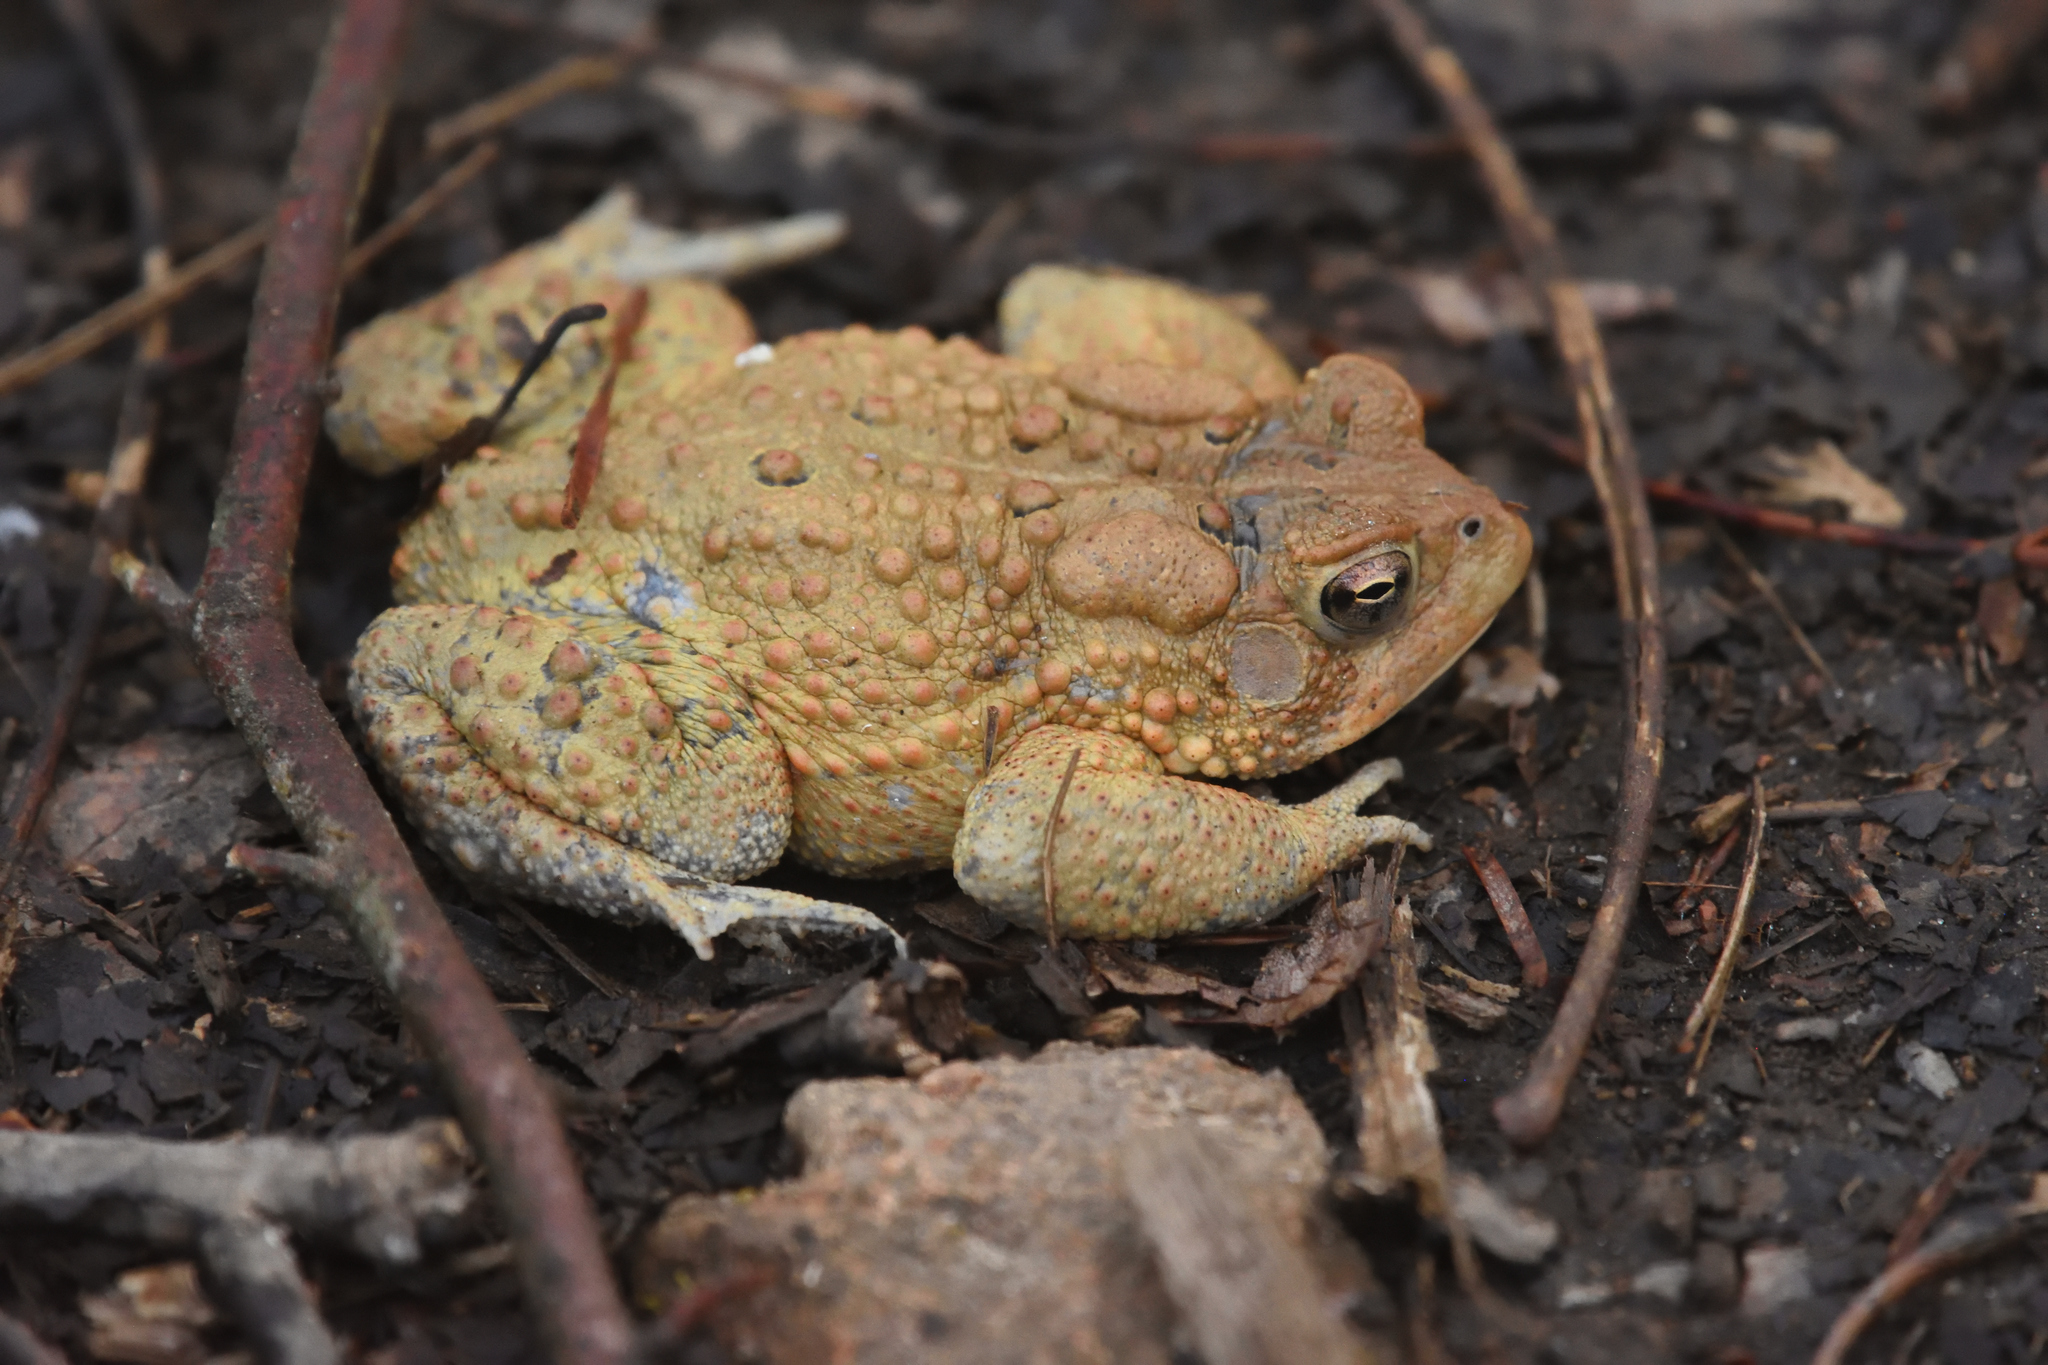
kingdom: Animalia
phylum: Chordata
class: Amphibia
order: Anura
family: Bufonidae
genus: Anaxyrus
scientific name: Anaxyrus americanus
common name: American toad
